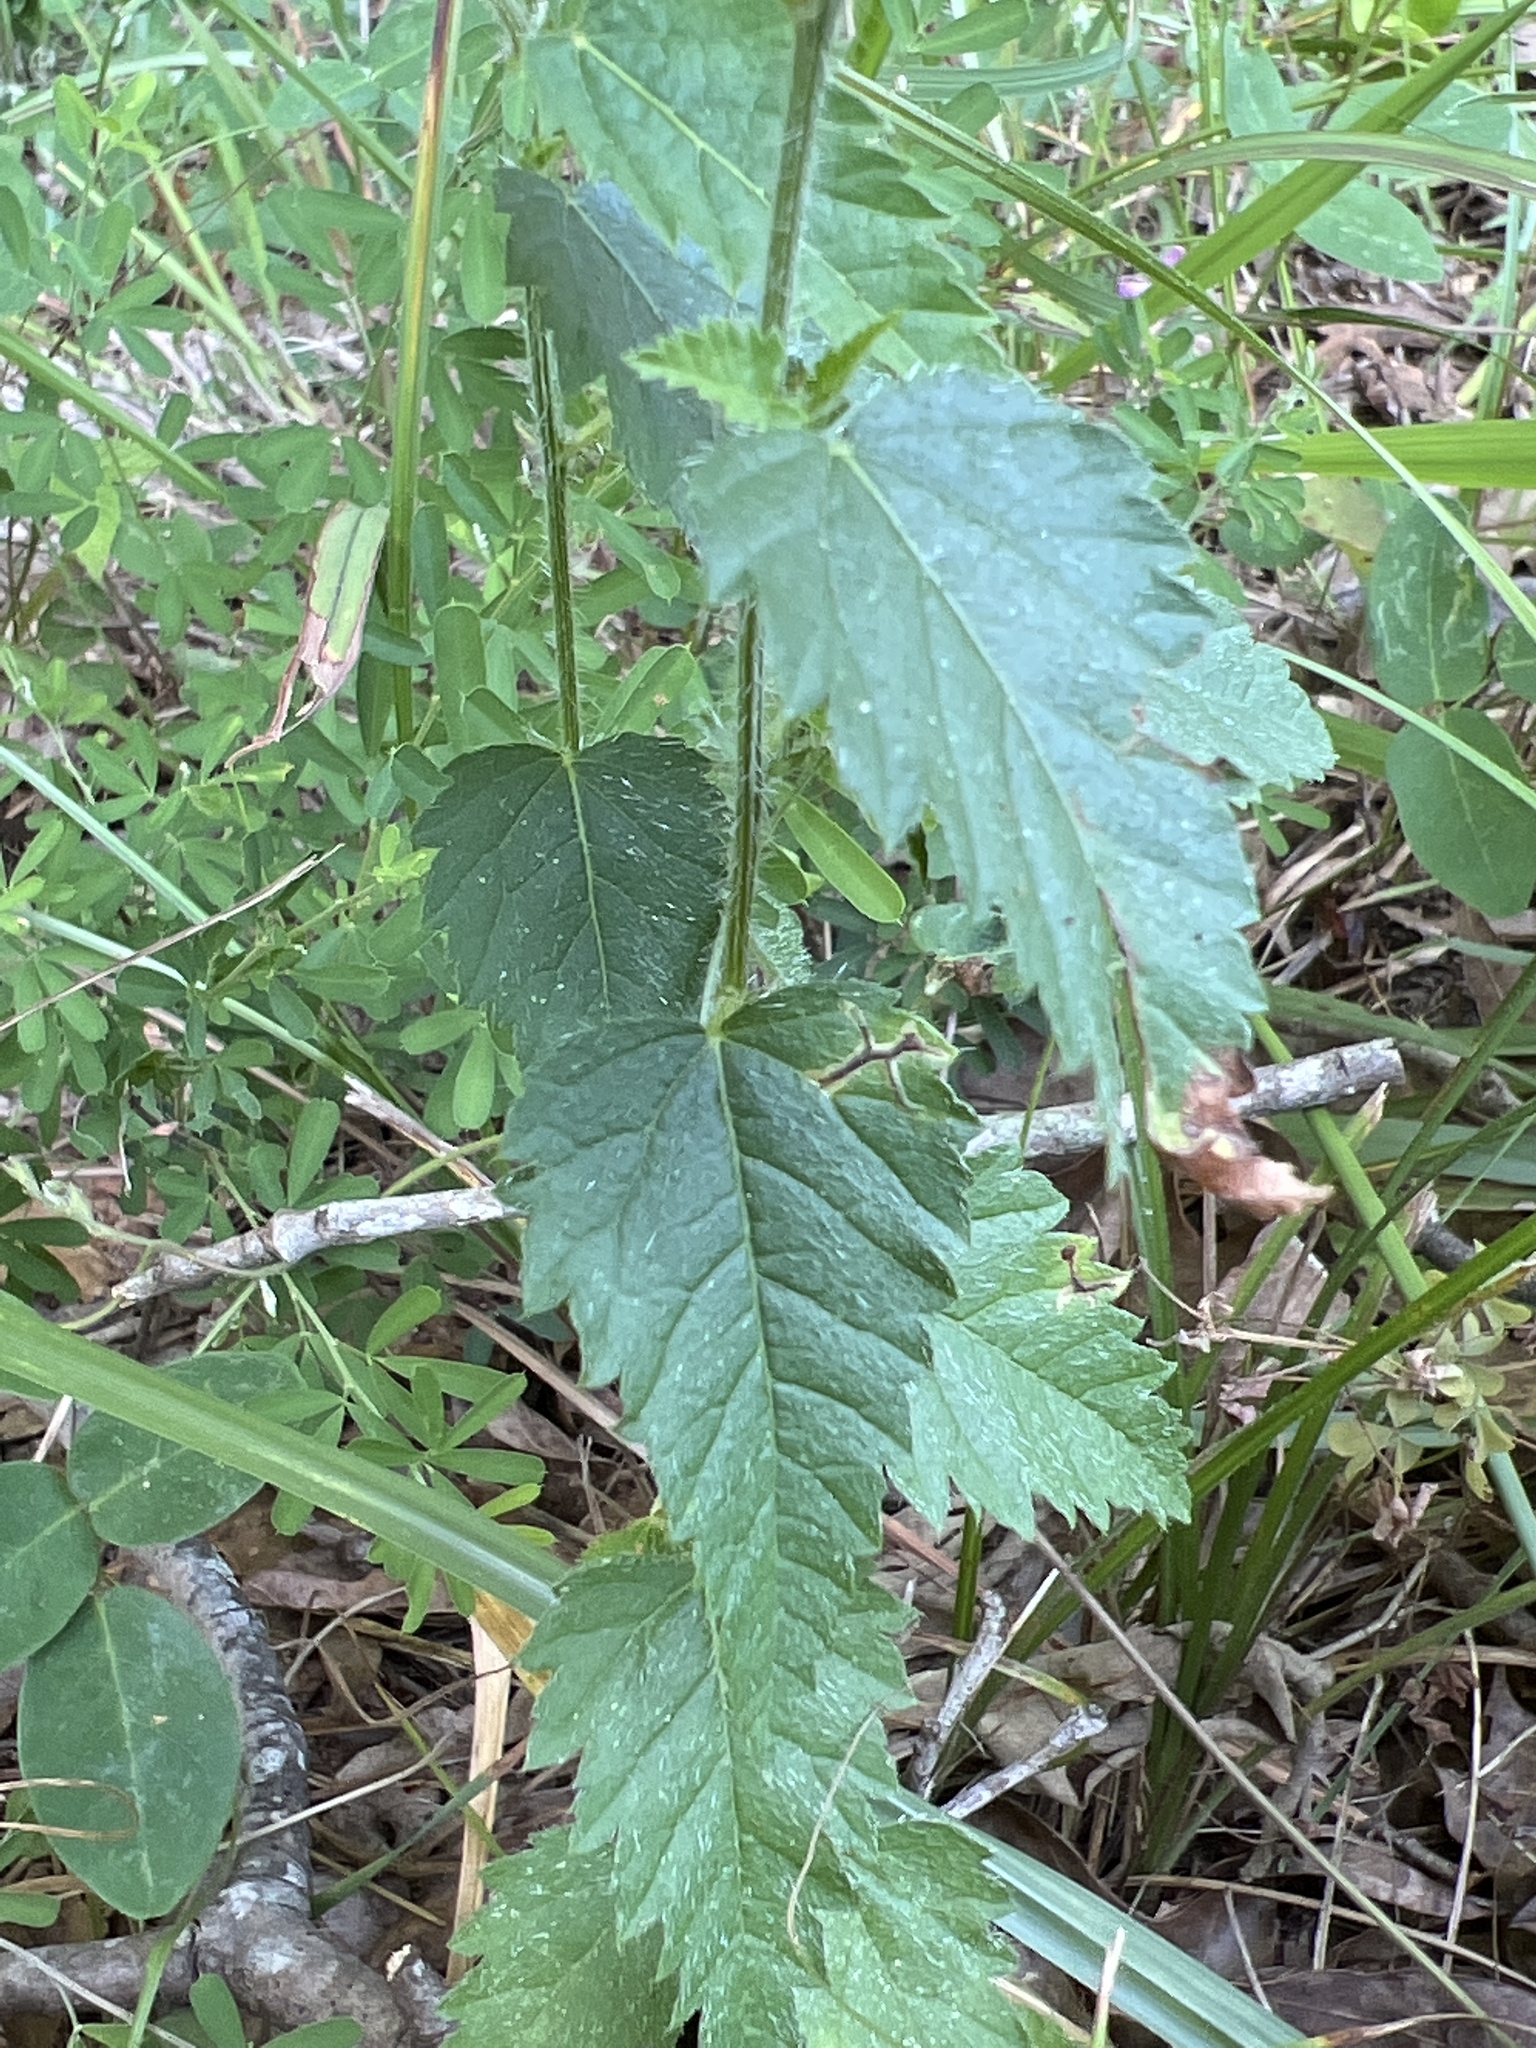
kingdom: Plantae
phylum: Tracheophyta
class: Magnoliopsida
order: Malpighiales
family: Euphorbiaceae
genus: Tragia
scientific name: Tragia urticifolia
